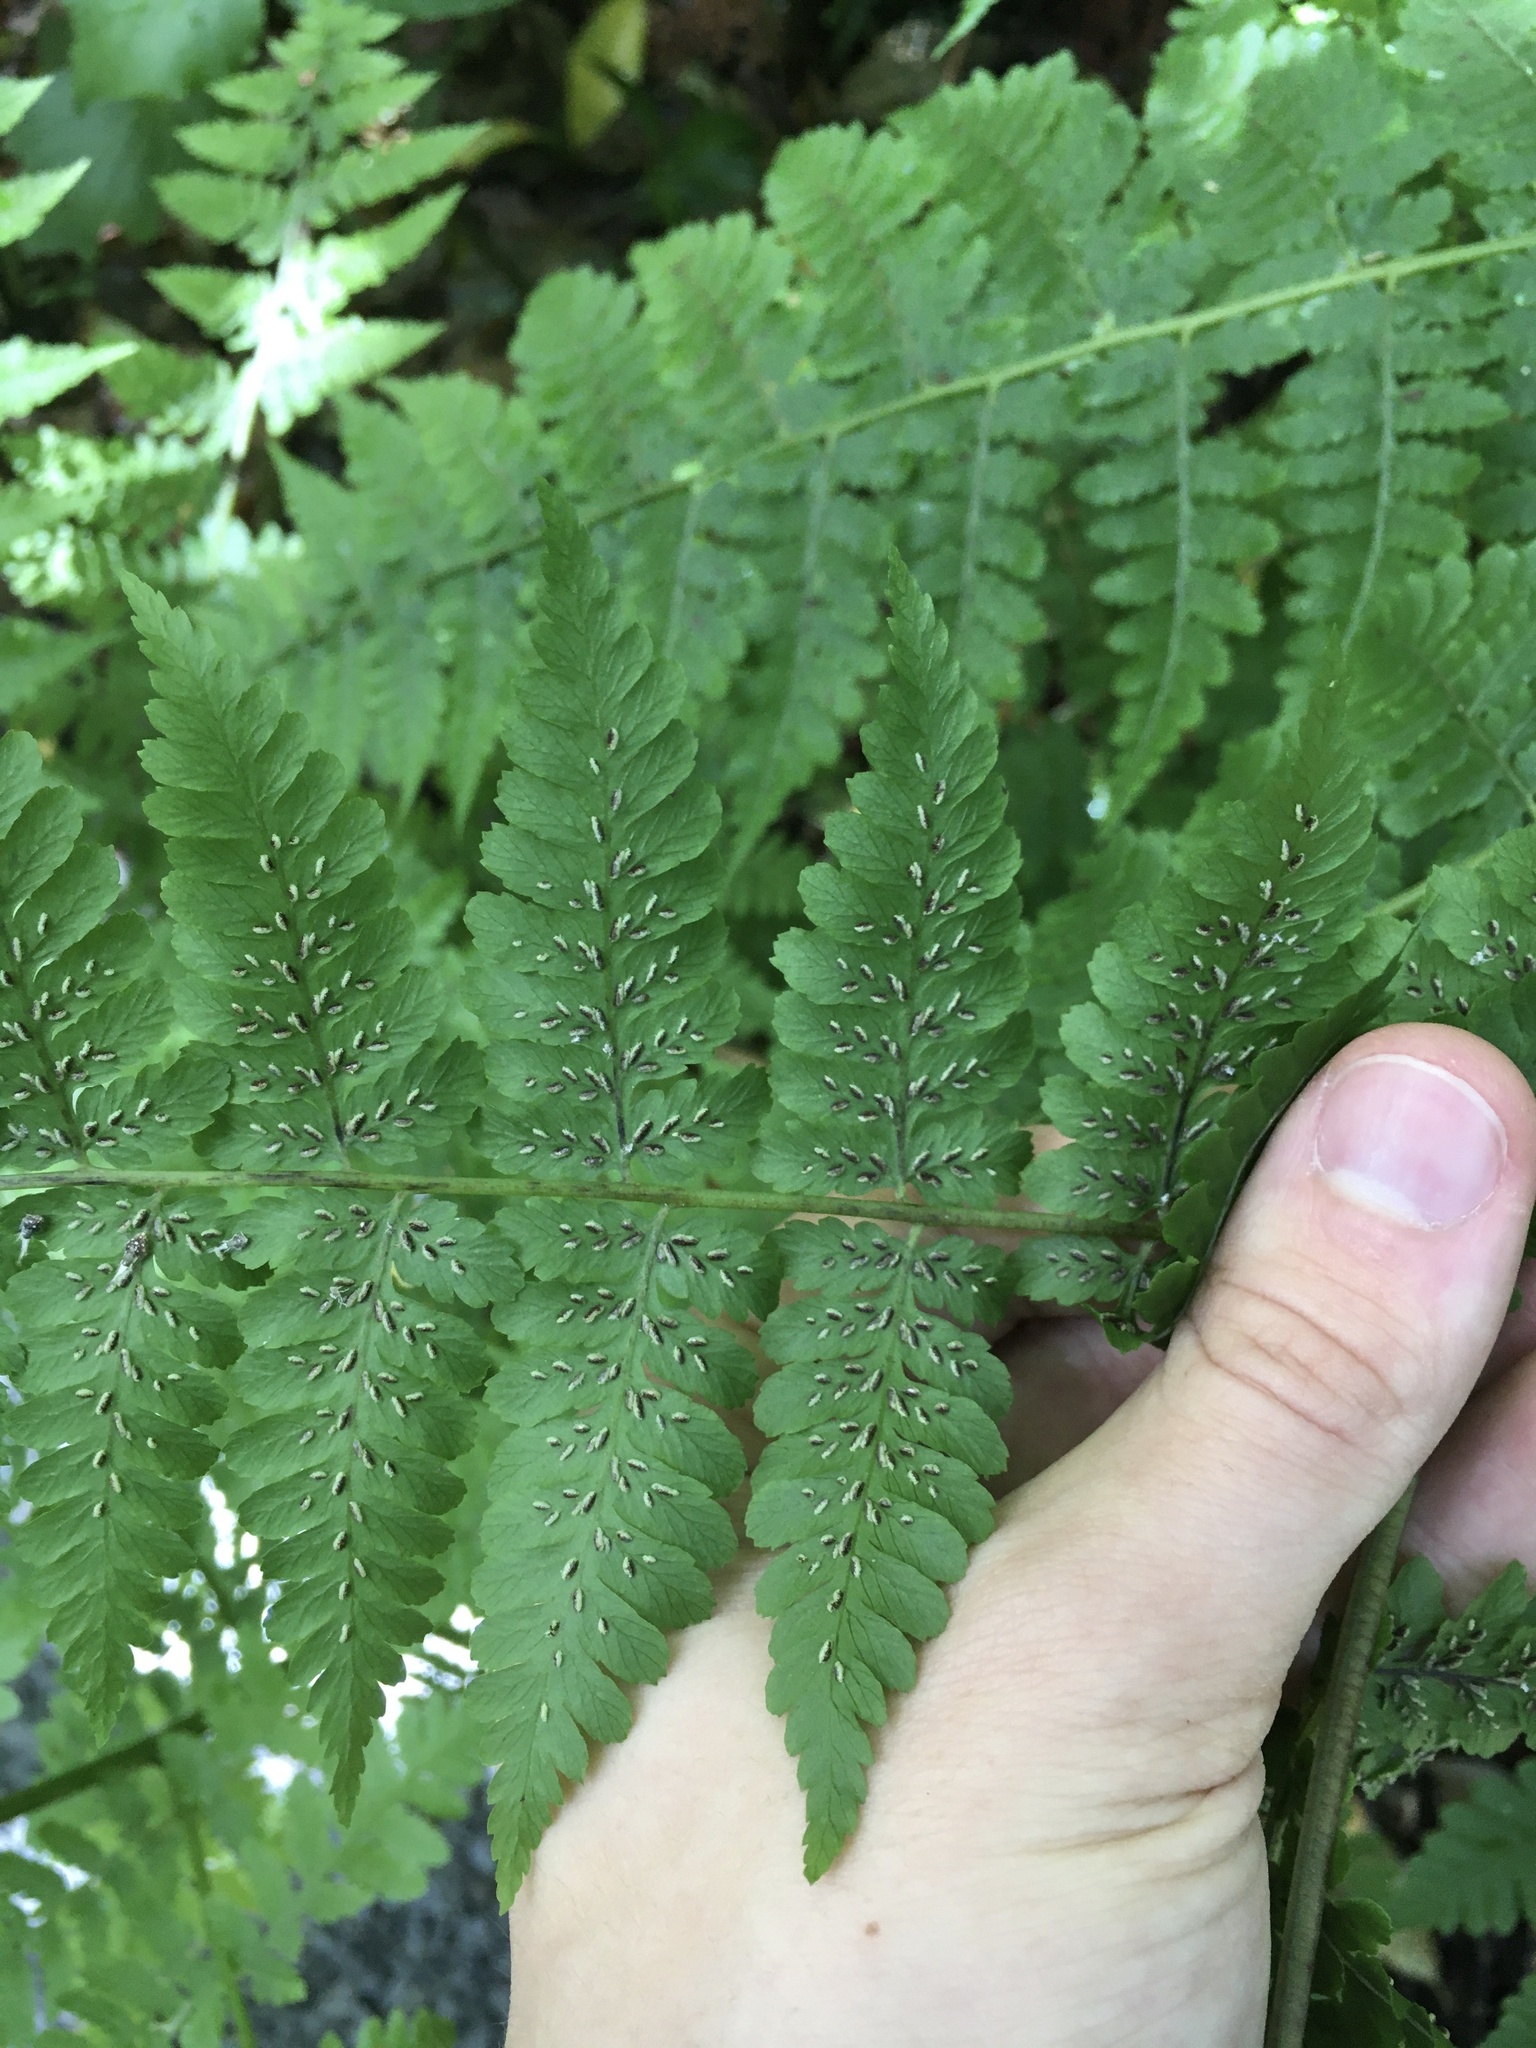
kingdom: Plantae
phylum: Tracheophyta
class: Polypodiopsida
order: Polypodiales
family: Athyriaceae
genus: Diplazium
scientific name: Diplazium australe
